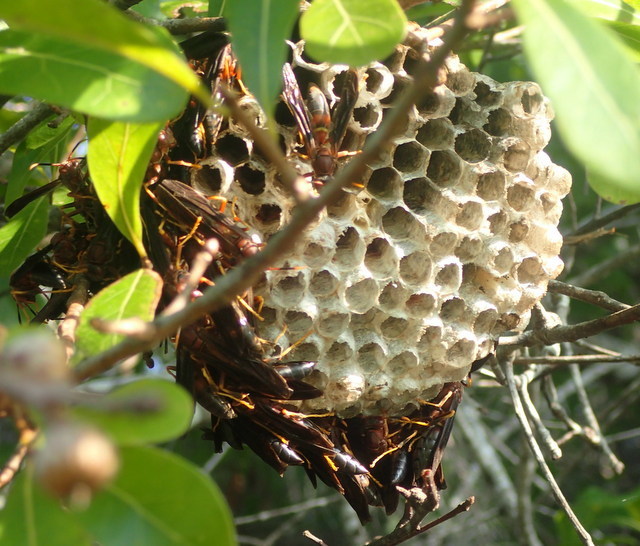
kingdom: Animalia
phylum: Arthropoda
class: Insecta
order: Hymenoptera
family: Eumenidae
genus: Polistes
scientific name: Polistes annularis
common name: Ringed paper wasp
